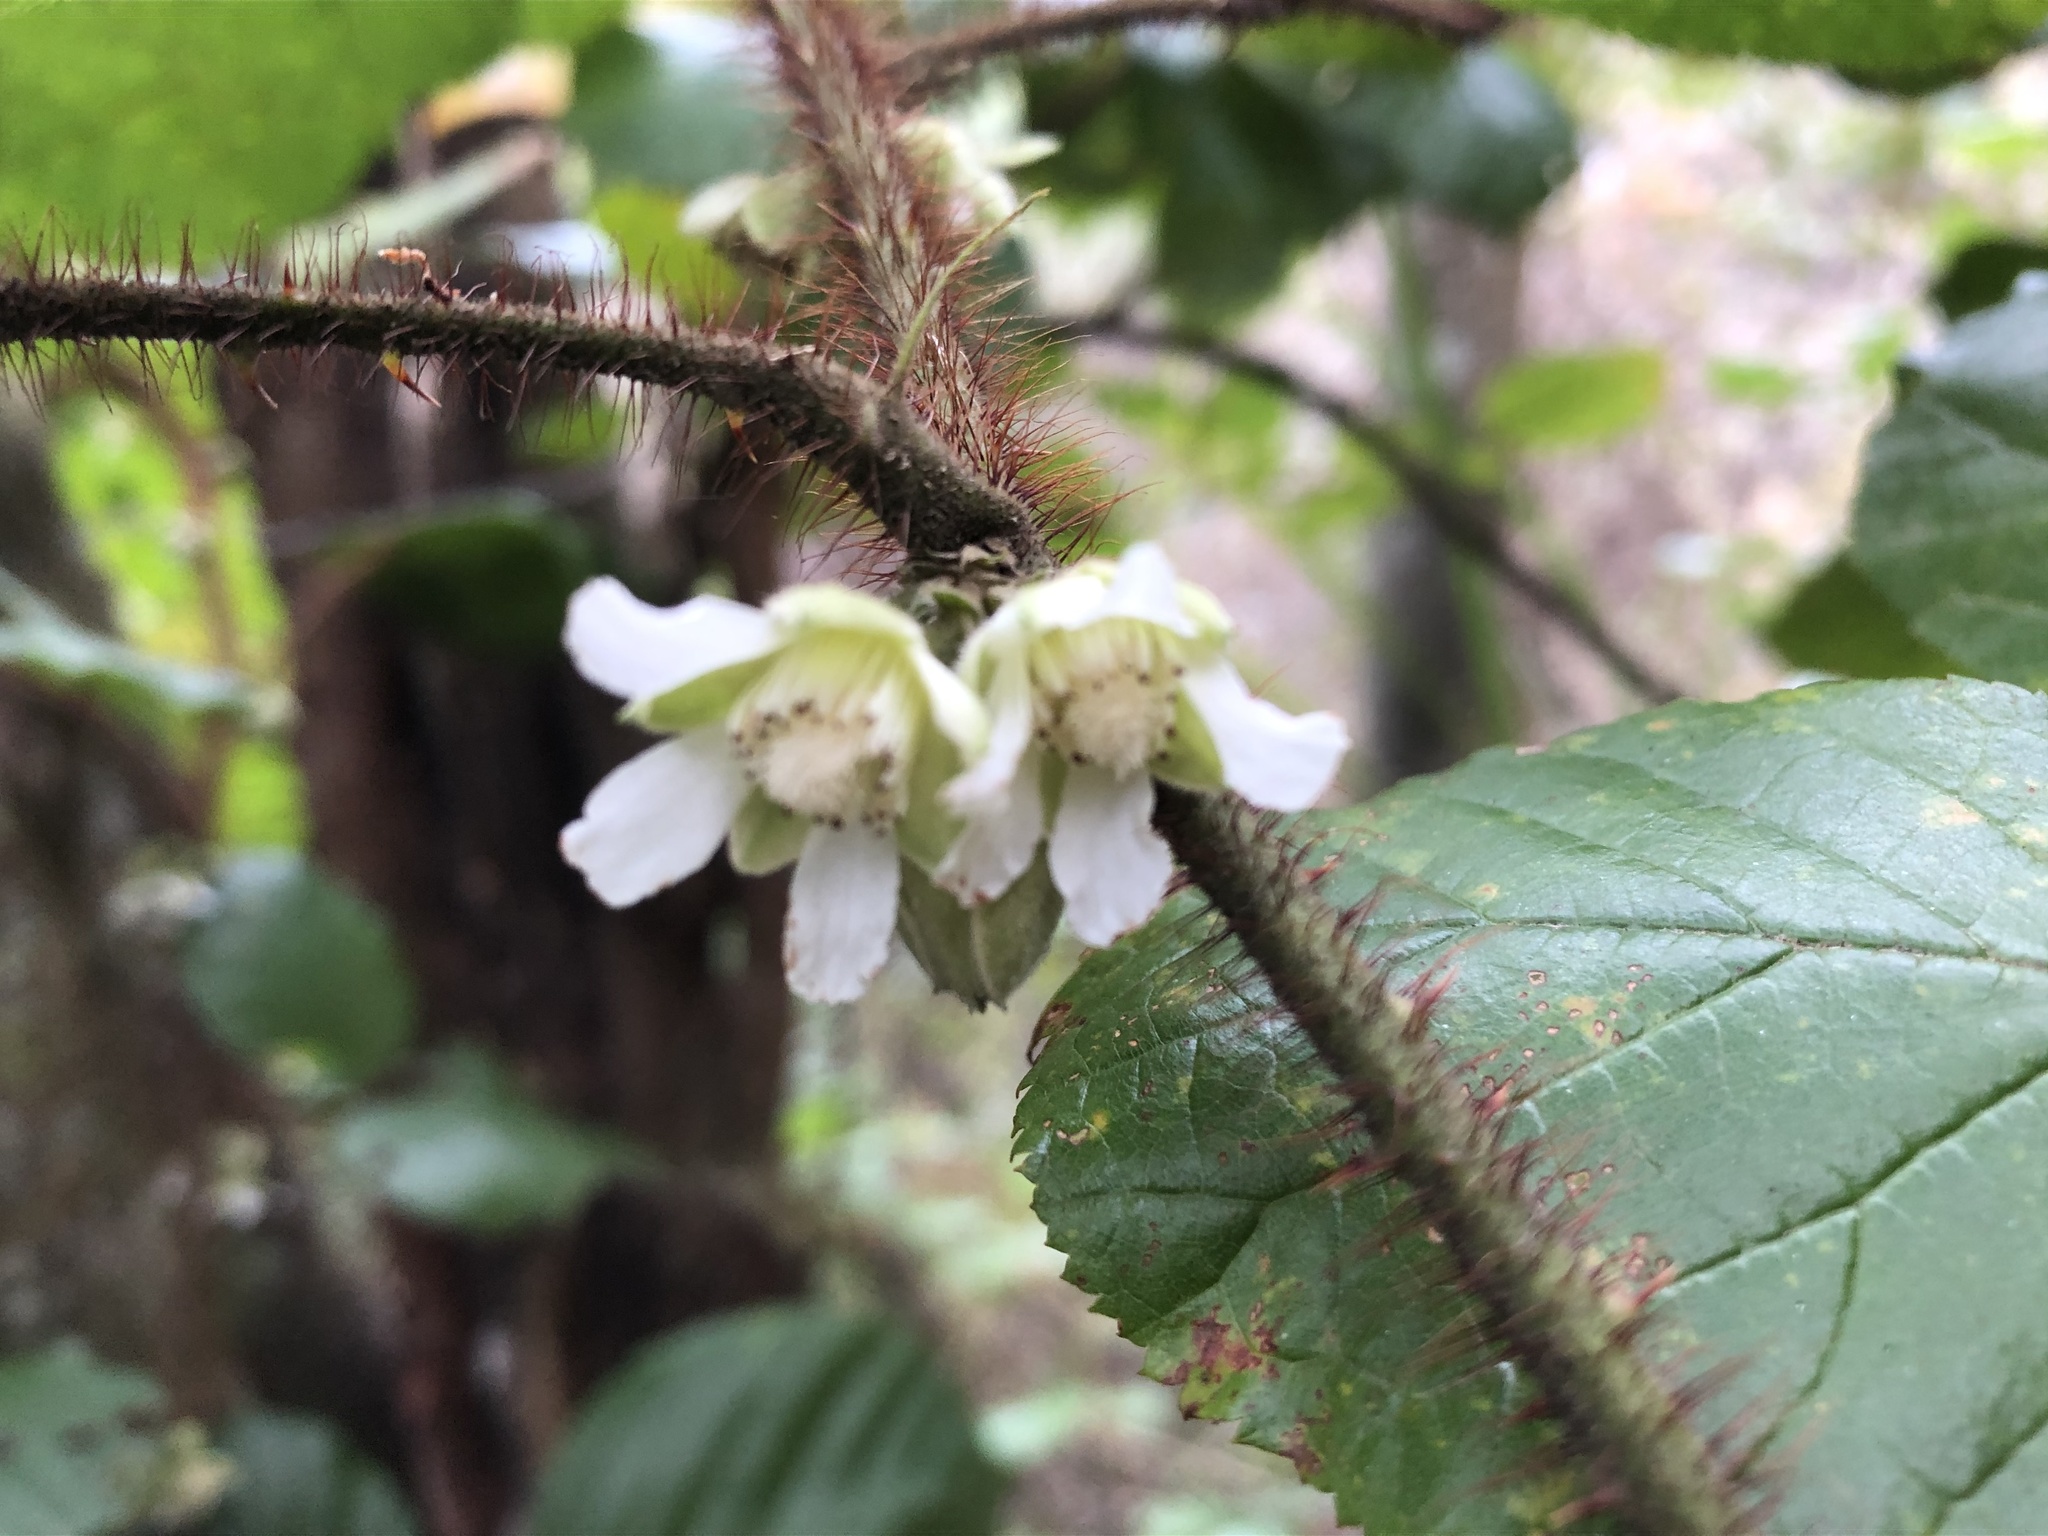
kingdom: Plantae
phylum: Tracheophyta
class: Magnoliopsida
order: Rosales
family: Rosaceae
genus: Rubus
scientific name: Rubus ellipticus
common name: Cheeseberry
